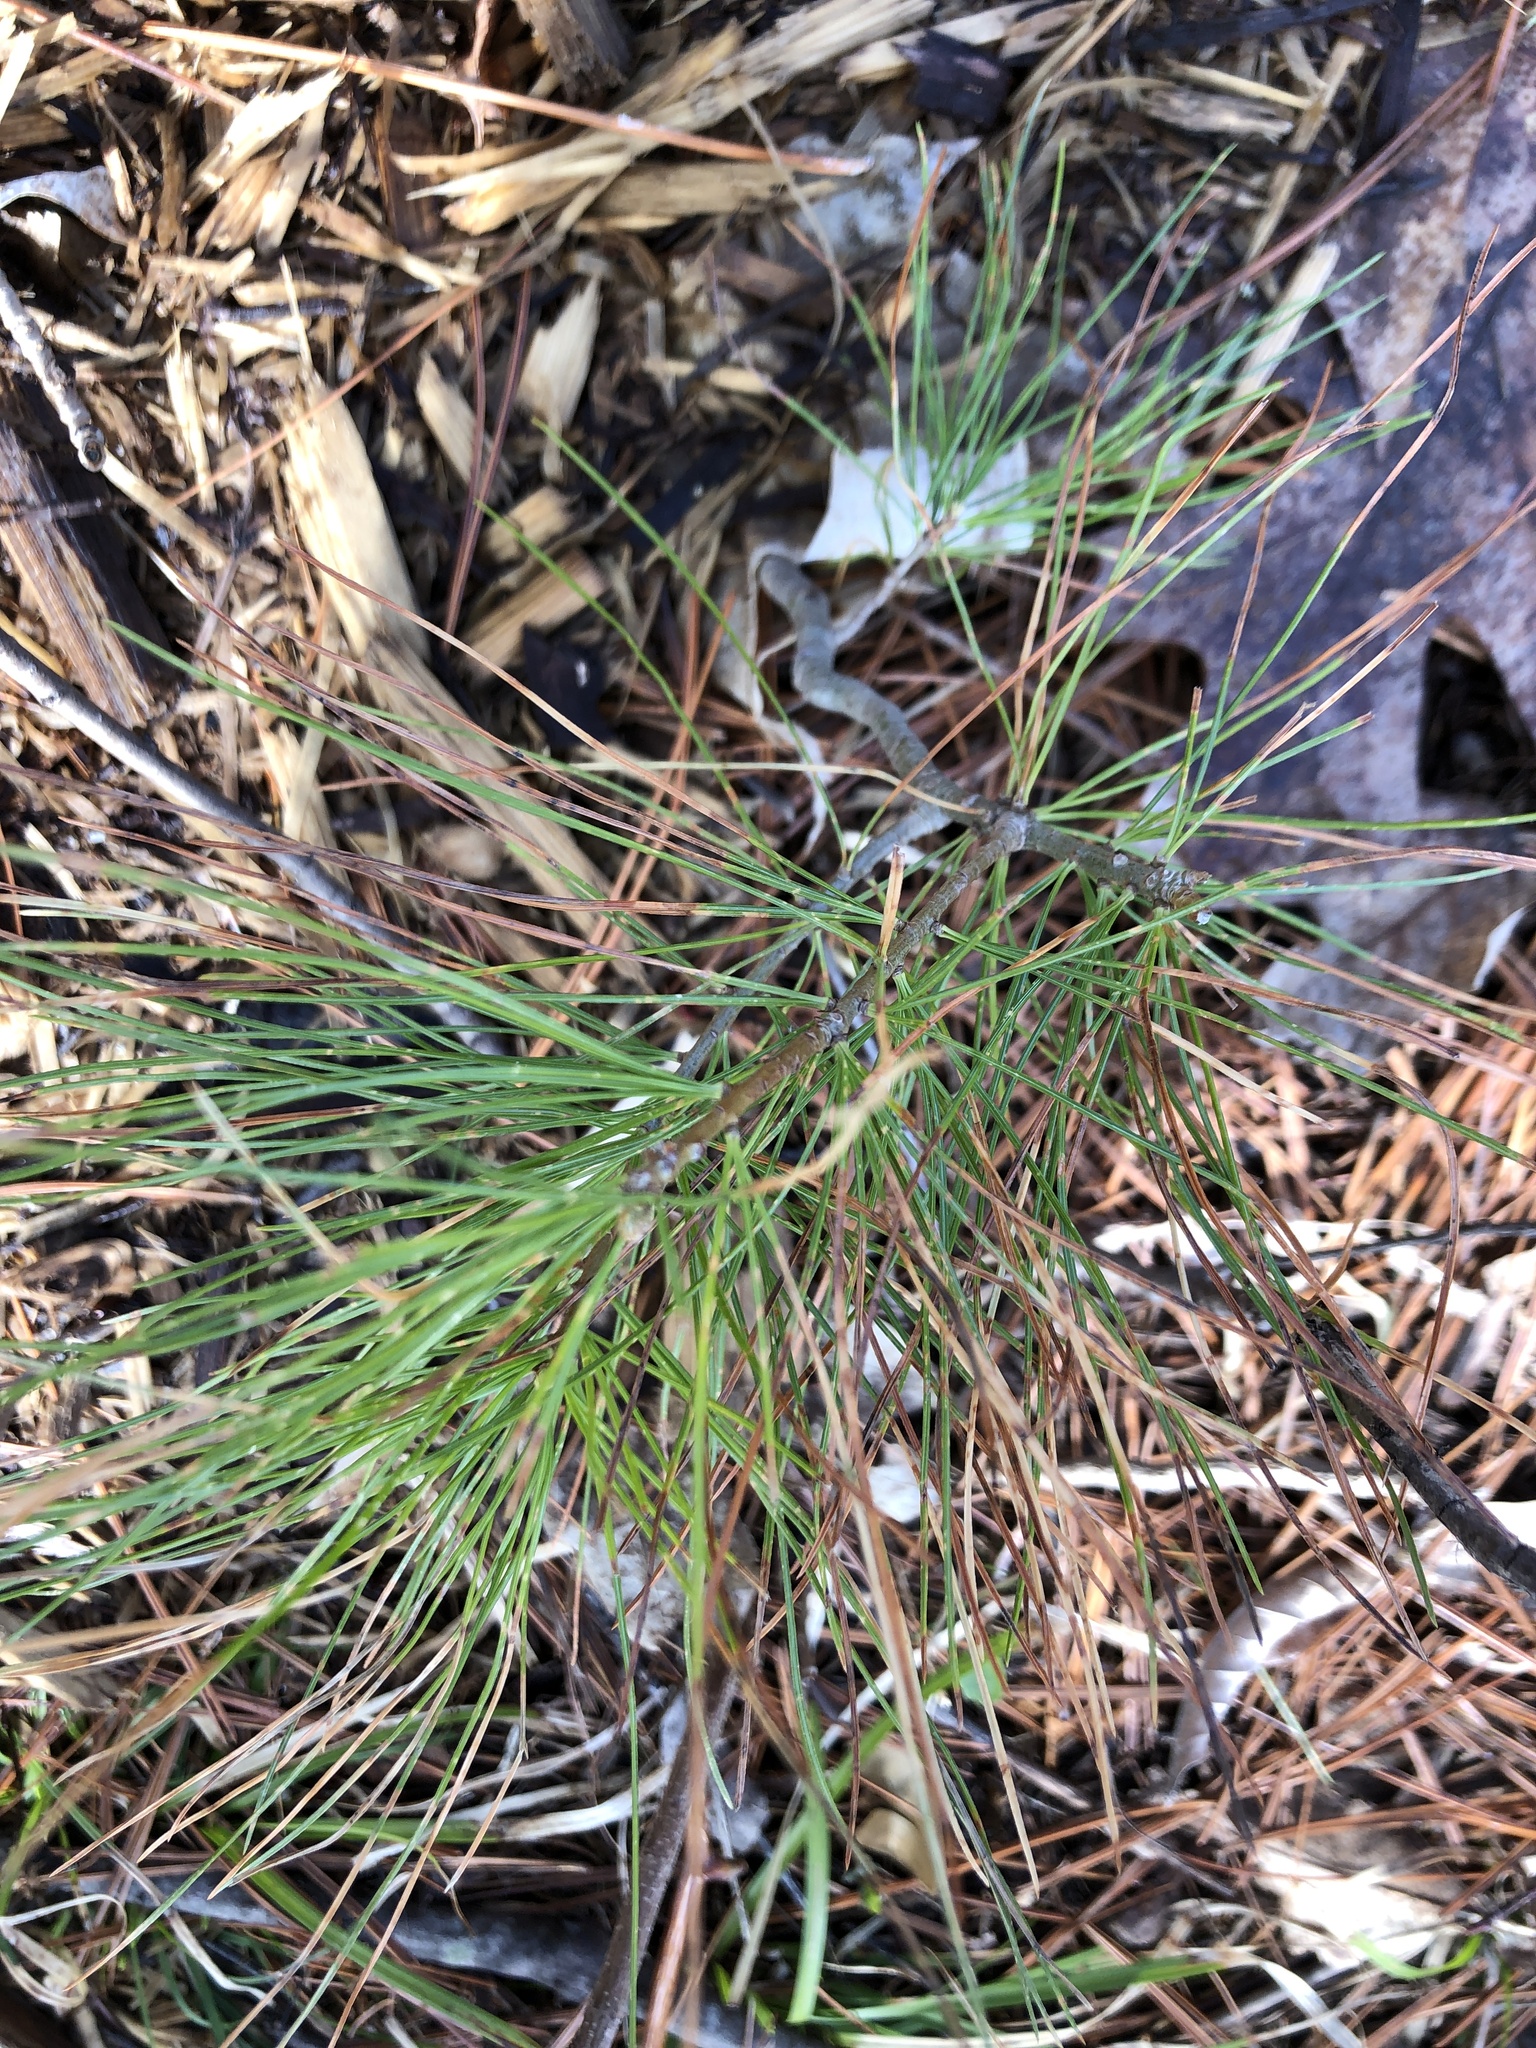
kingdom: Plantae
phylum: Tracheophyta
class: Pinopsida
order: Pinales
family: Pinaceae
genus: Pinus
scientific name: Pinus strobus
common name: Weymouth pine
